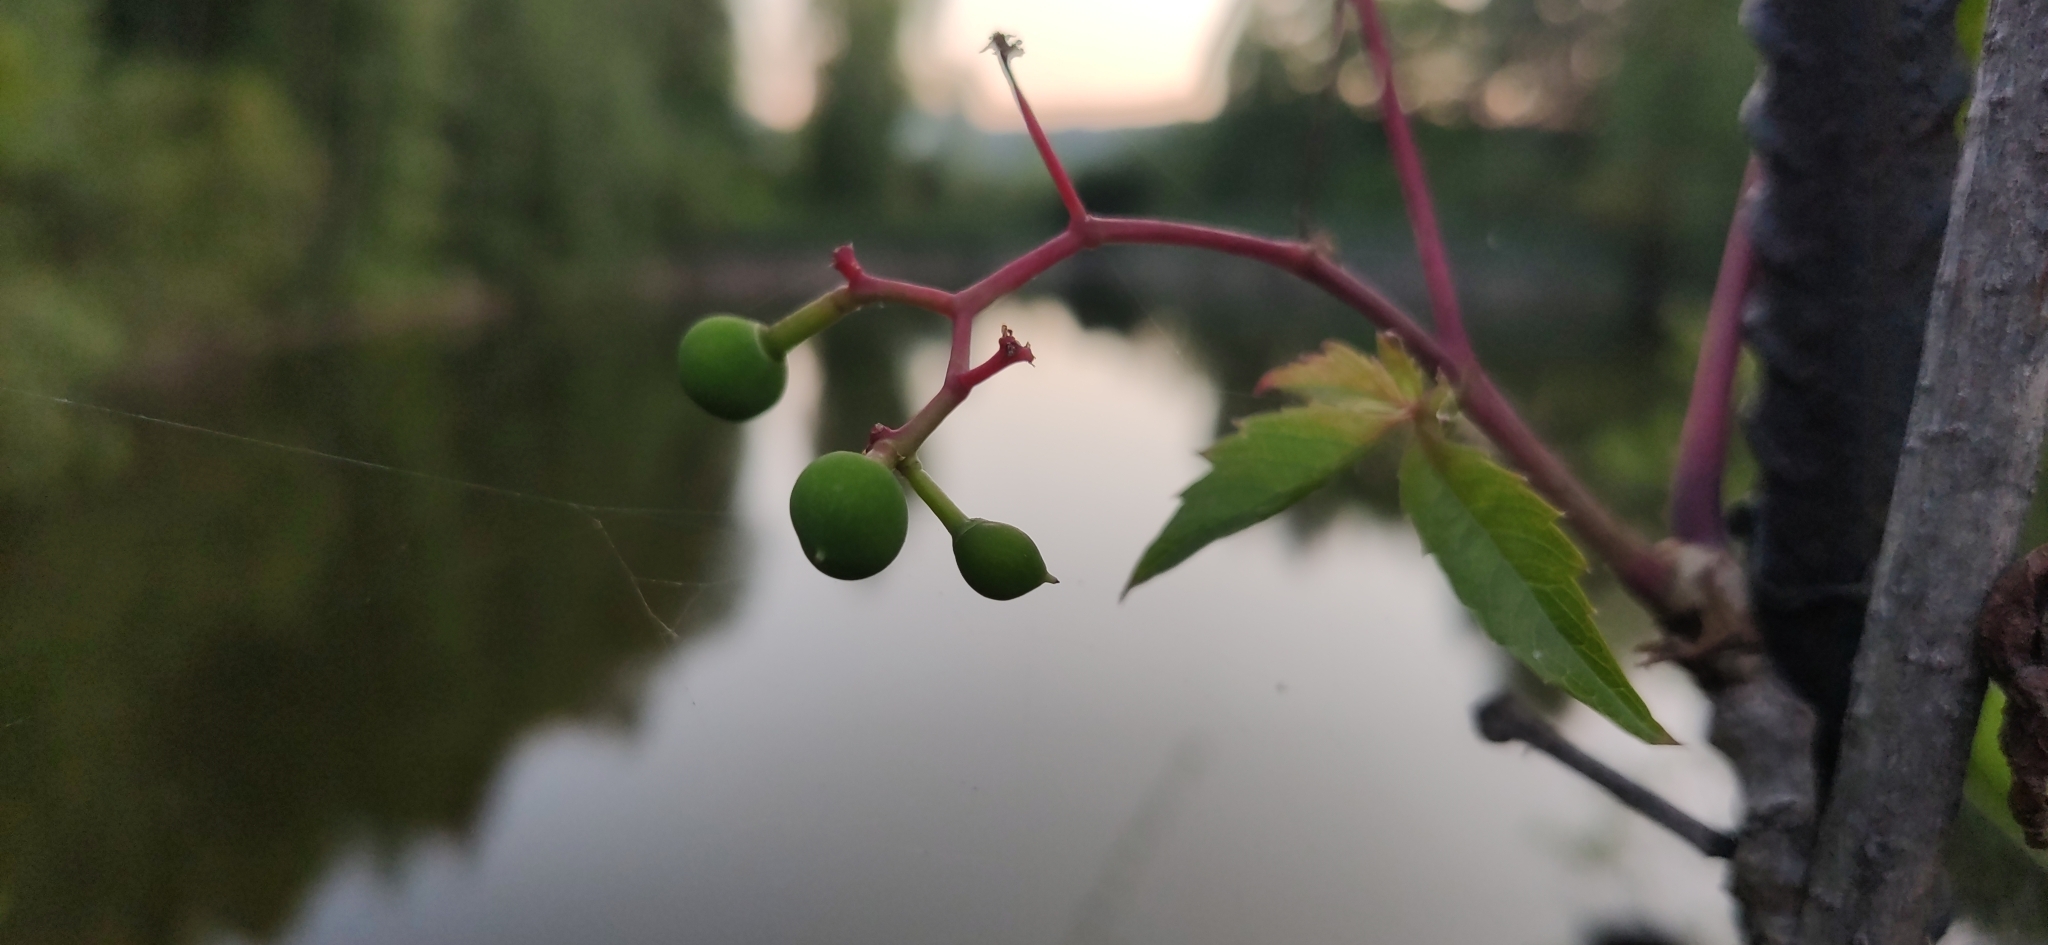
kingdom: Plantae
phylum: Tracheophyta
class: Magnoliopsida
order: Vitales
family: Vitaceae
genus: Parthenocissus
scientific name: Parthenocissus inserta
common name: False virginia-creeper
